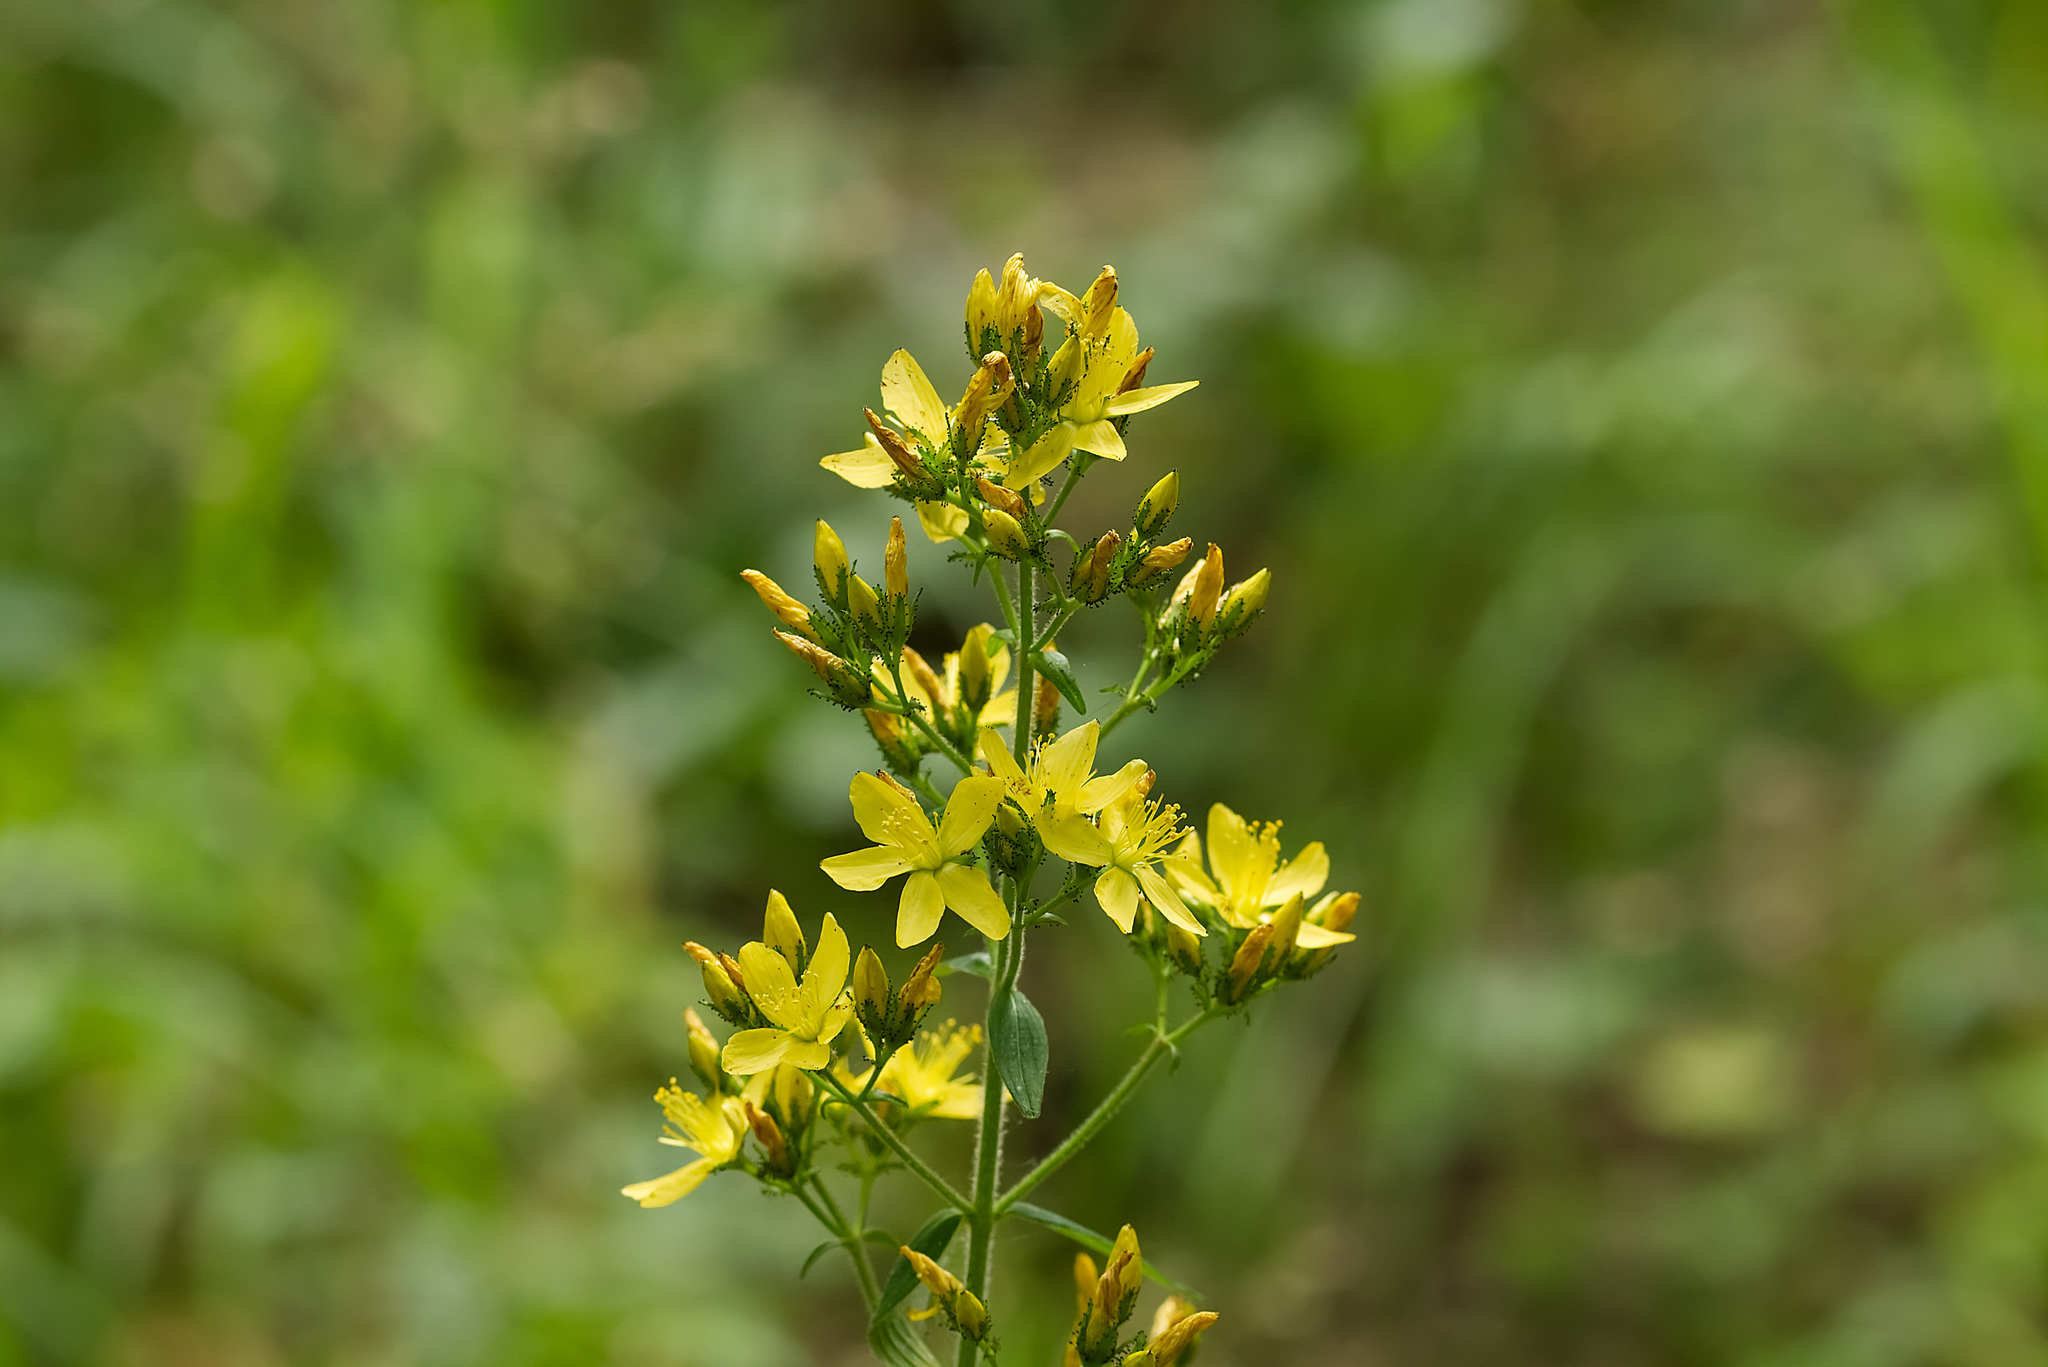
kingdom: Plantae
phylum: Tracheophyta
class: Magnoliopsida
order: Malpighiales
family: Hypericaceae
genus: Hypericum
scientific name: Hypericum hirsutum
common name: Hairy st. john's-wort
